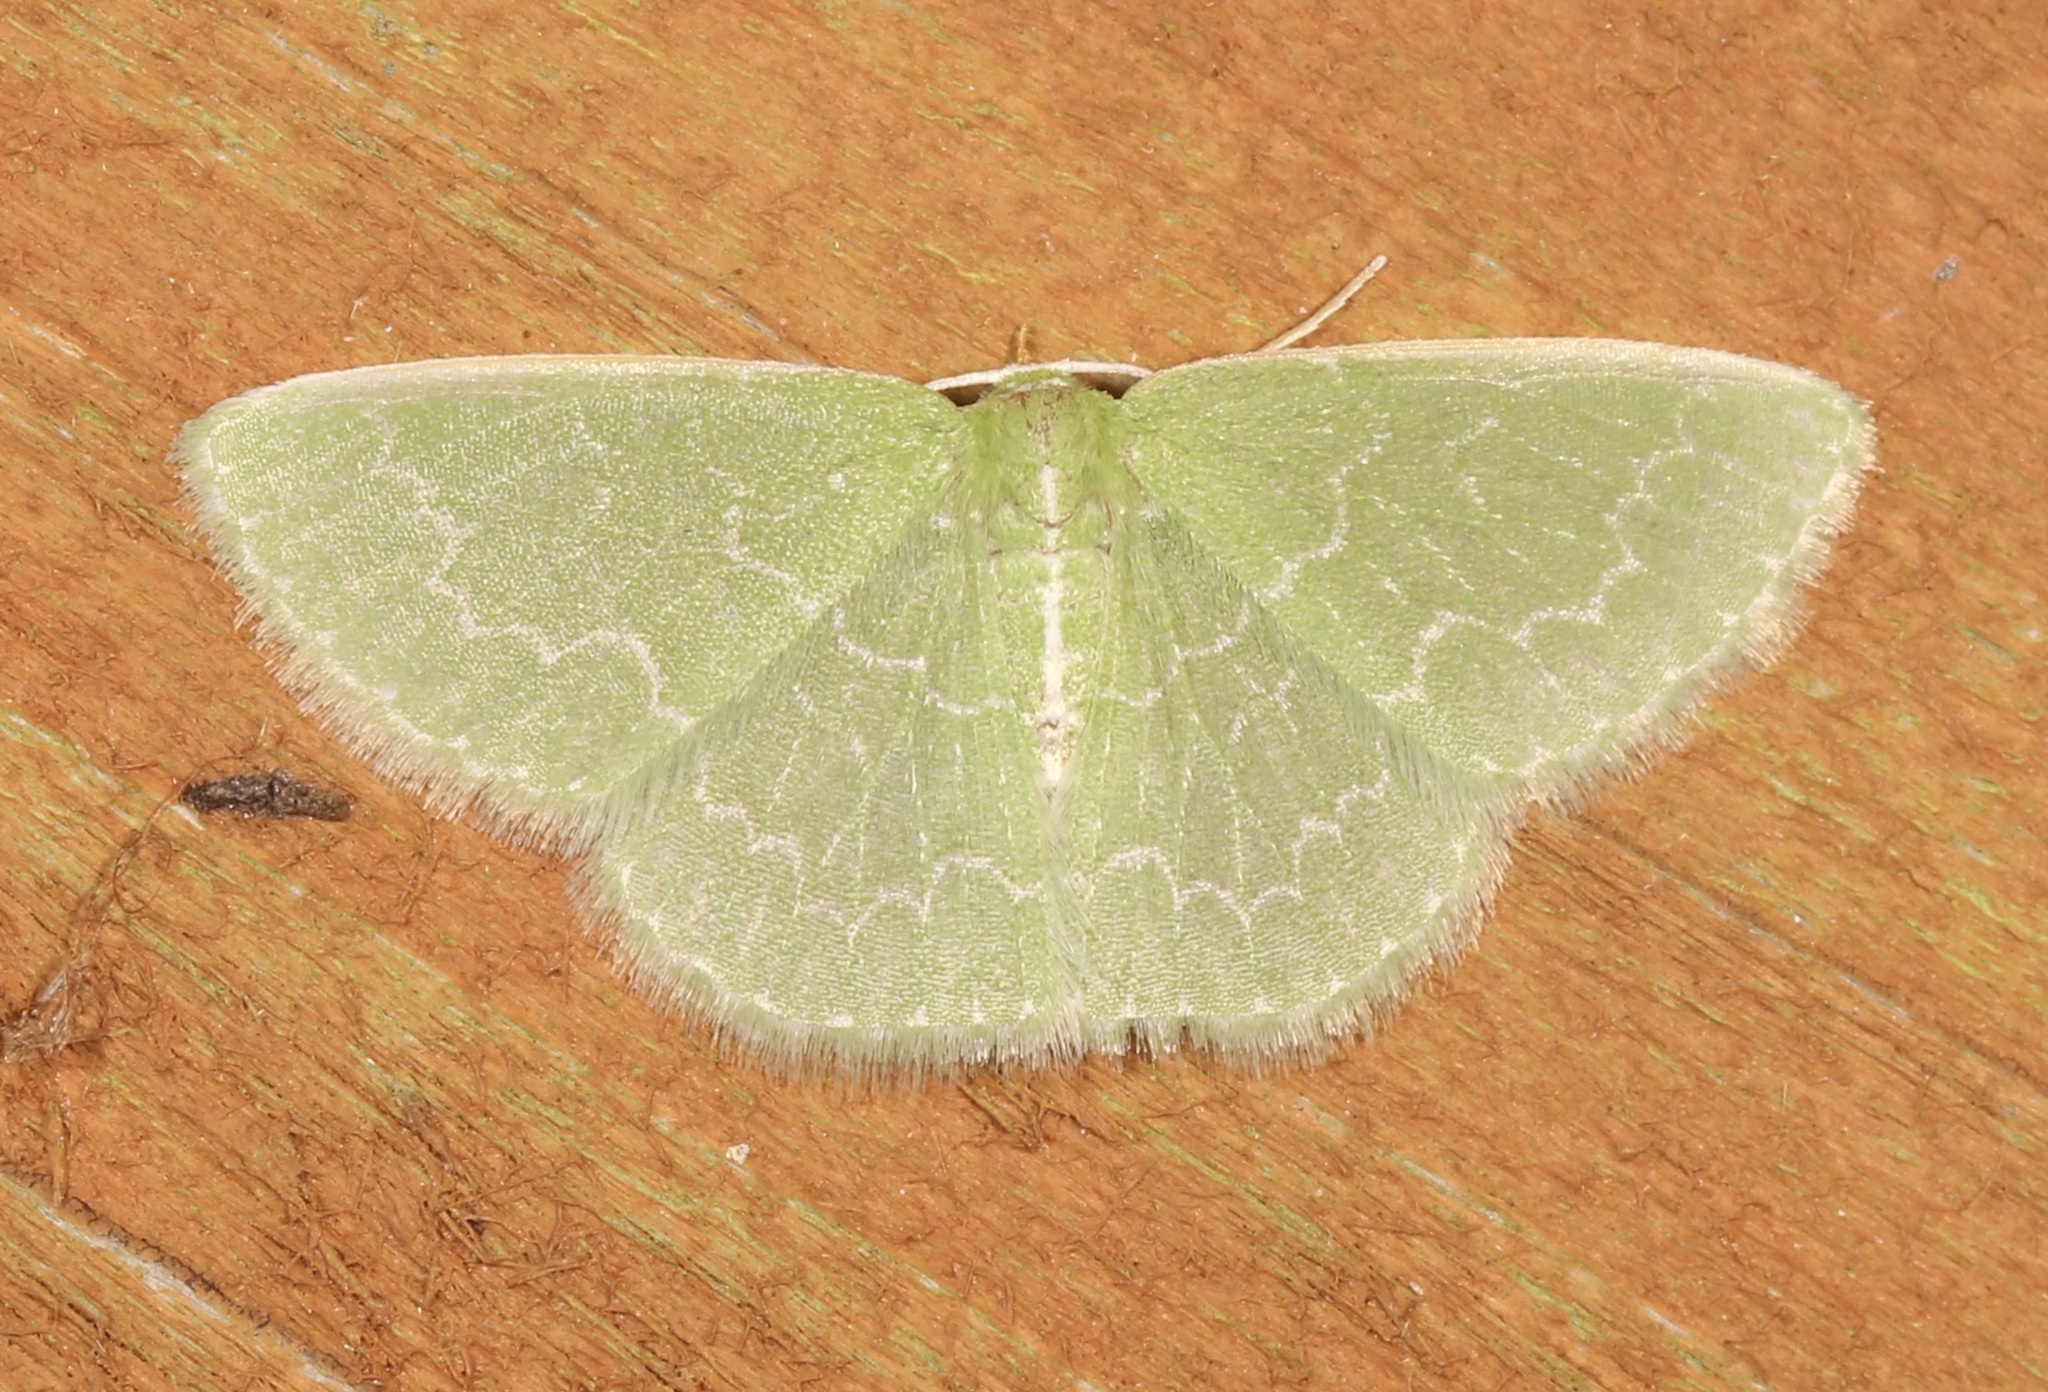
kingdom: Animalia
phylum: Arthropoda
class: Insecta
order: Lepidoptera
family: Geometridae
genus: Synchlora
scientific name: Synchlora frondaria
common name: Southern emerald
